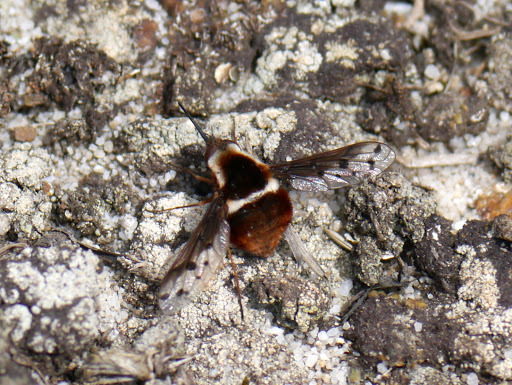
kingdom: Animalia
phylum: Arthropoda
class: Insecta
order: Diptera
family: Bombyliidae
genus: Bombylius
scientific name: Bombylius pygmaeus
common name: Pygmy bee fly
